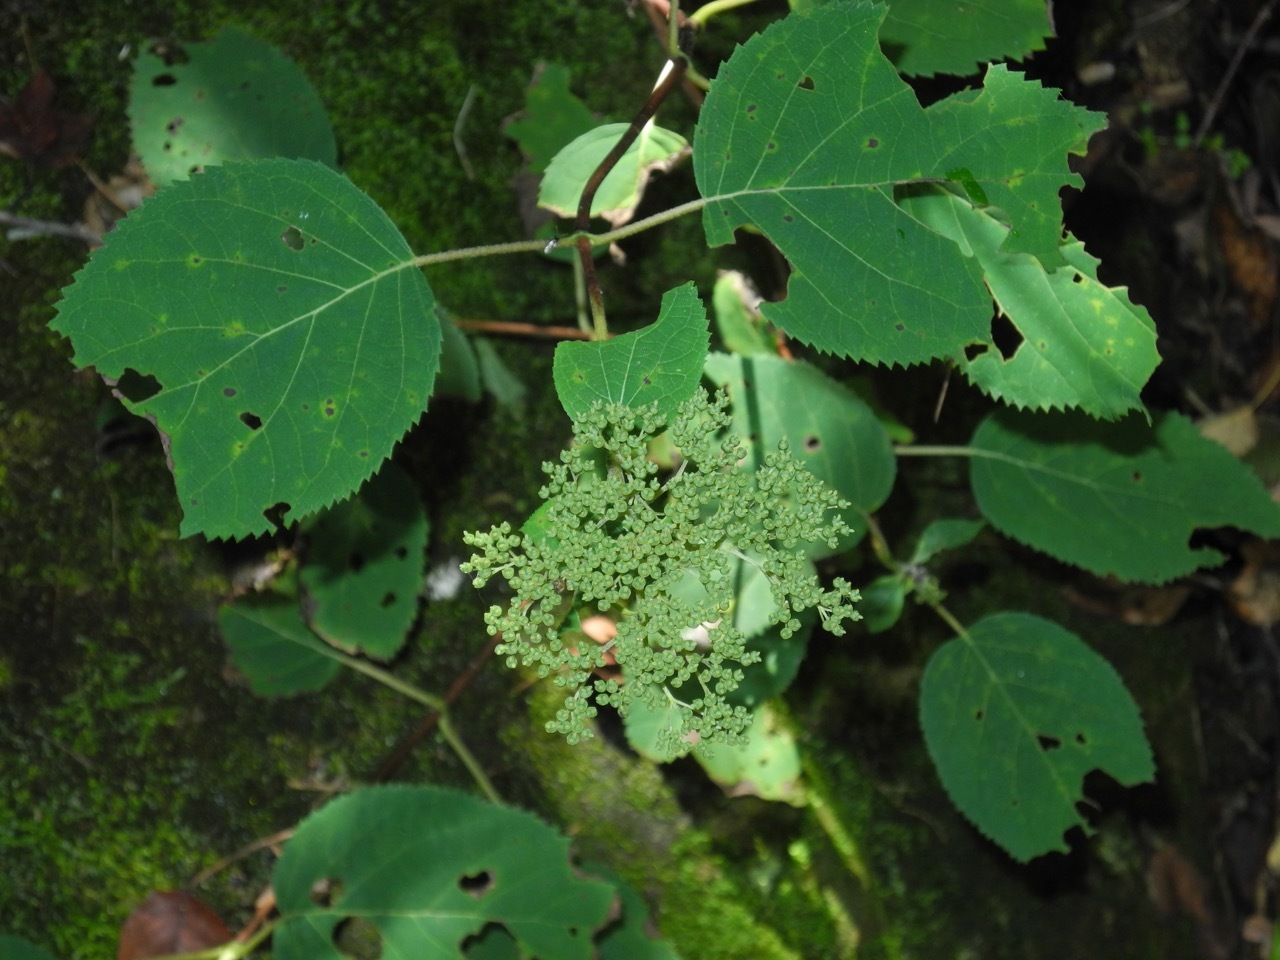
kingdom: Plantae
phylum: Tracheophyta
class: Magnoliopsida
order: Cornales
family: Hydrangeaceae
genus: Hydrangea
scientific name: Hydrangea arborescens
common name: Sevenbark
